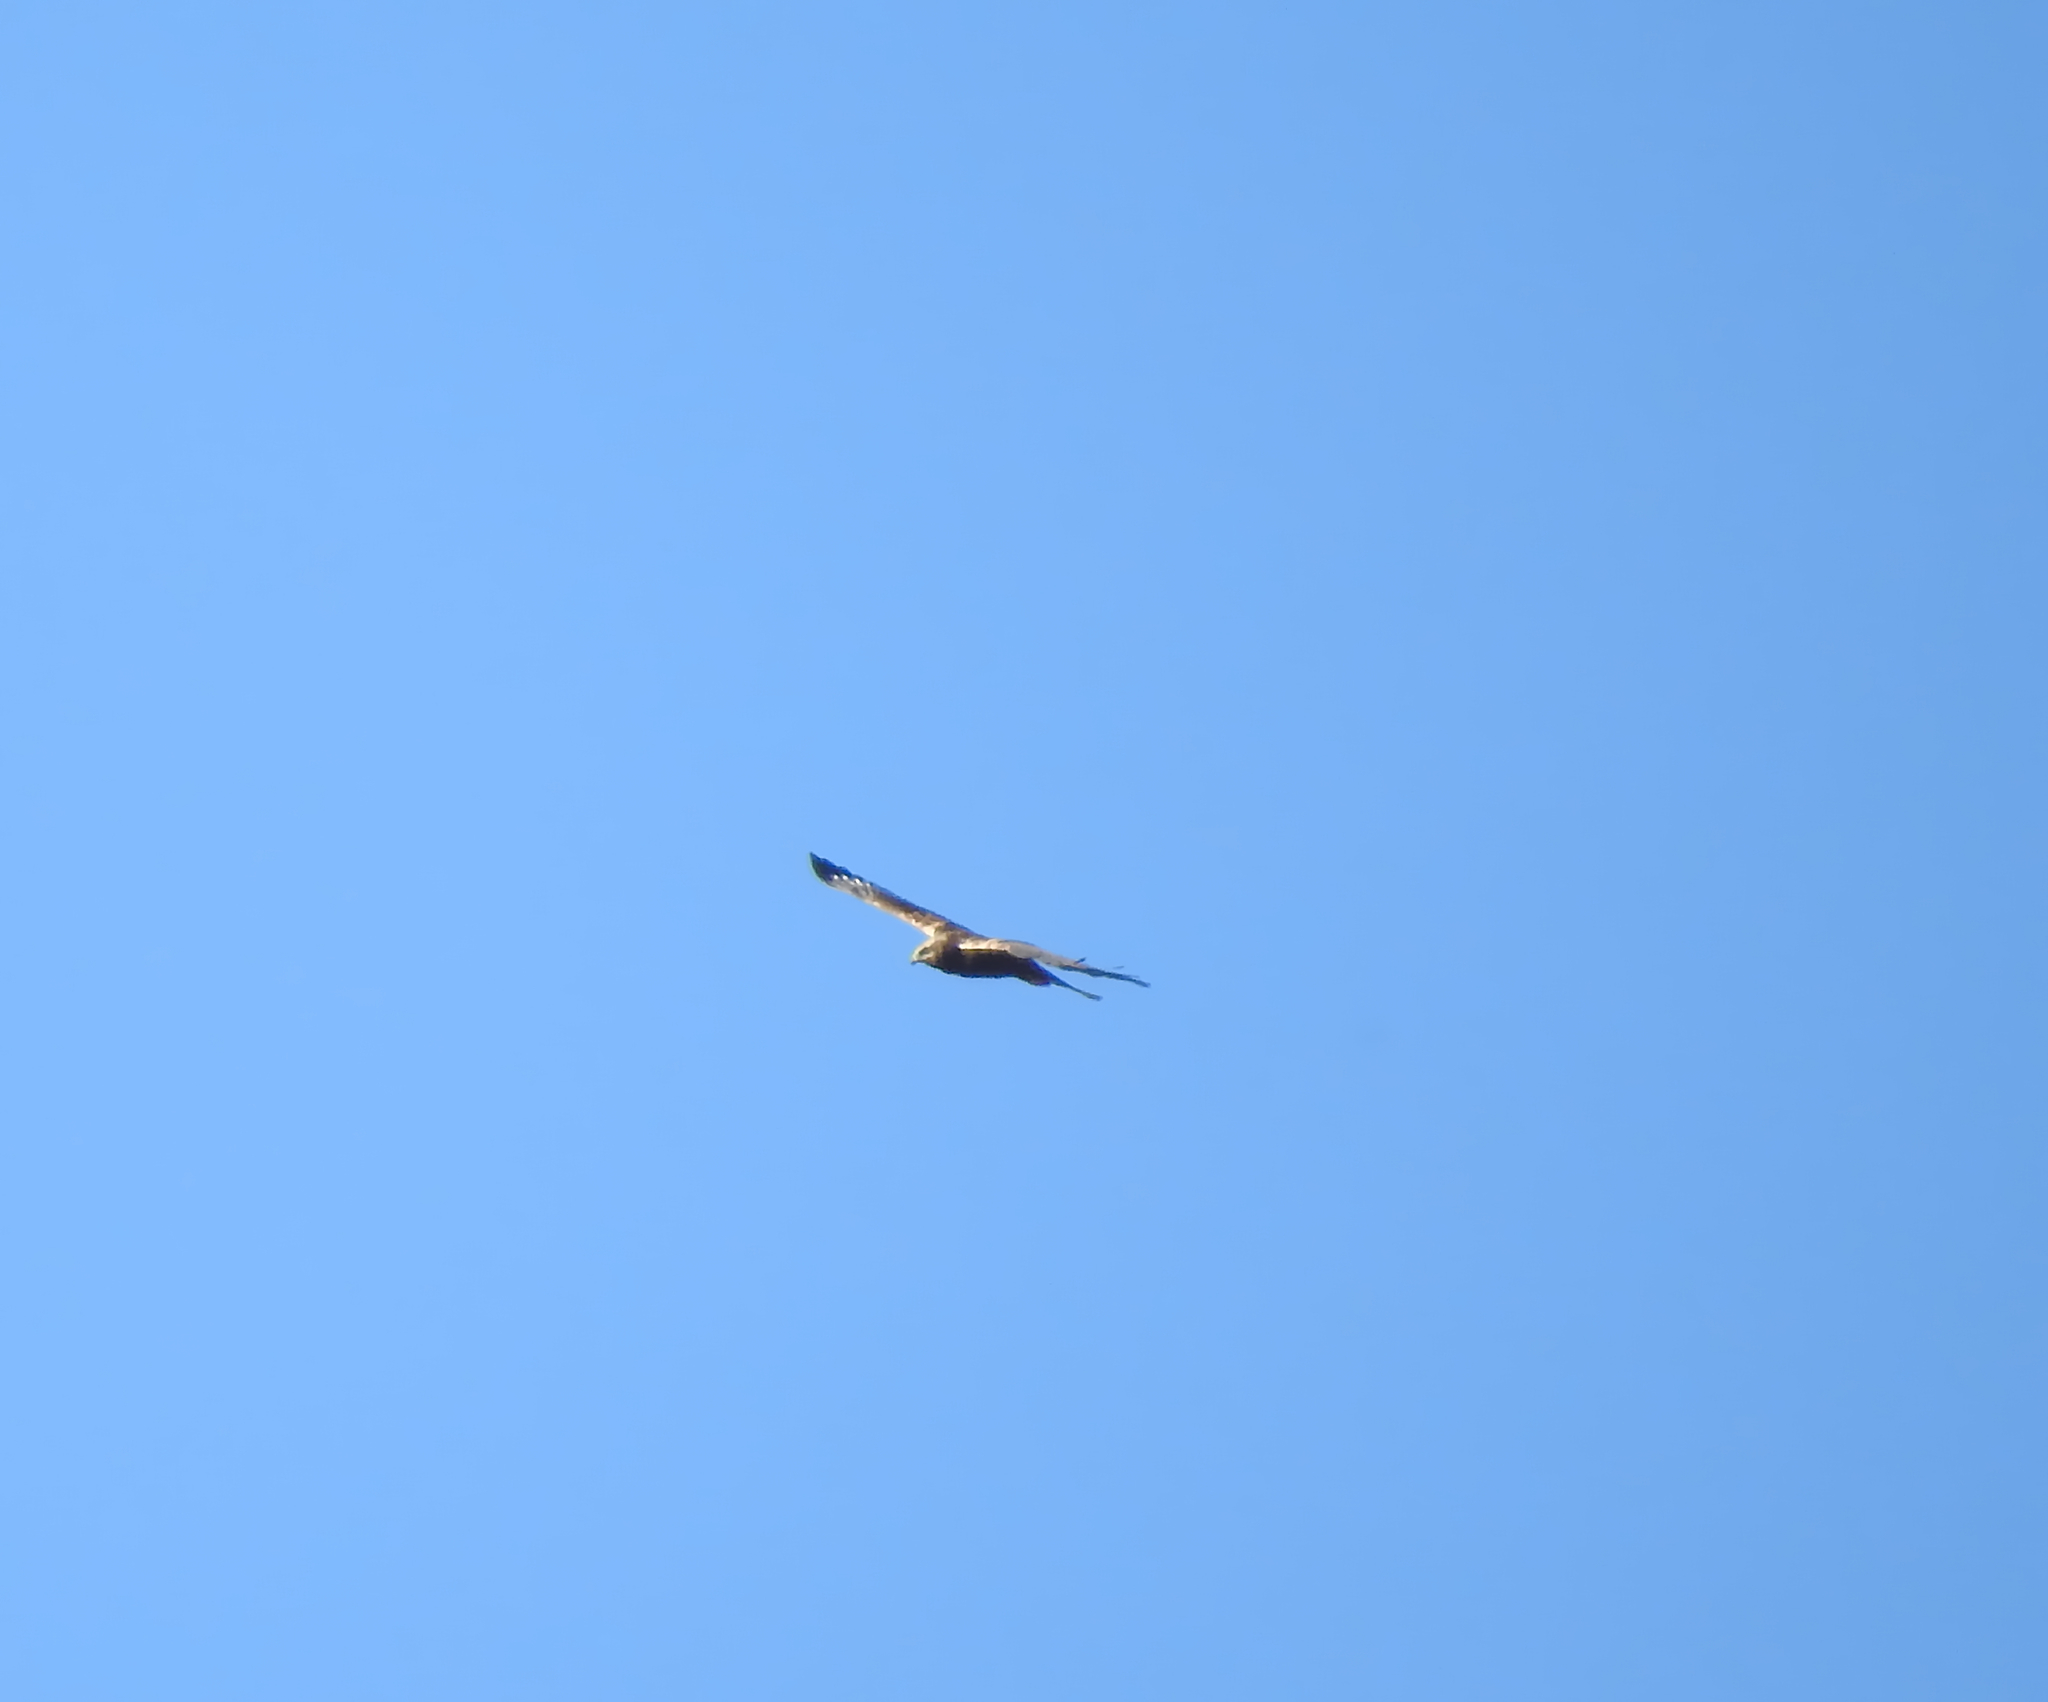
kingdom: Animalia
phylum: Chordata
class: Aves
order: Accipitriformes
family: Accipitridae
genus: Circus
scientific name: Circus aeruginosus
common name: Western marsh harrier
